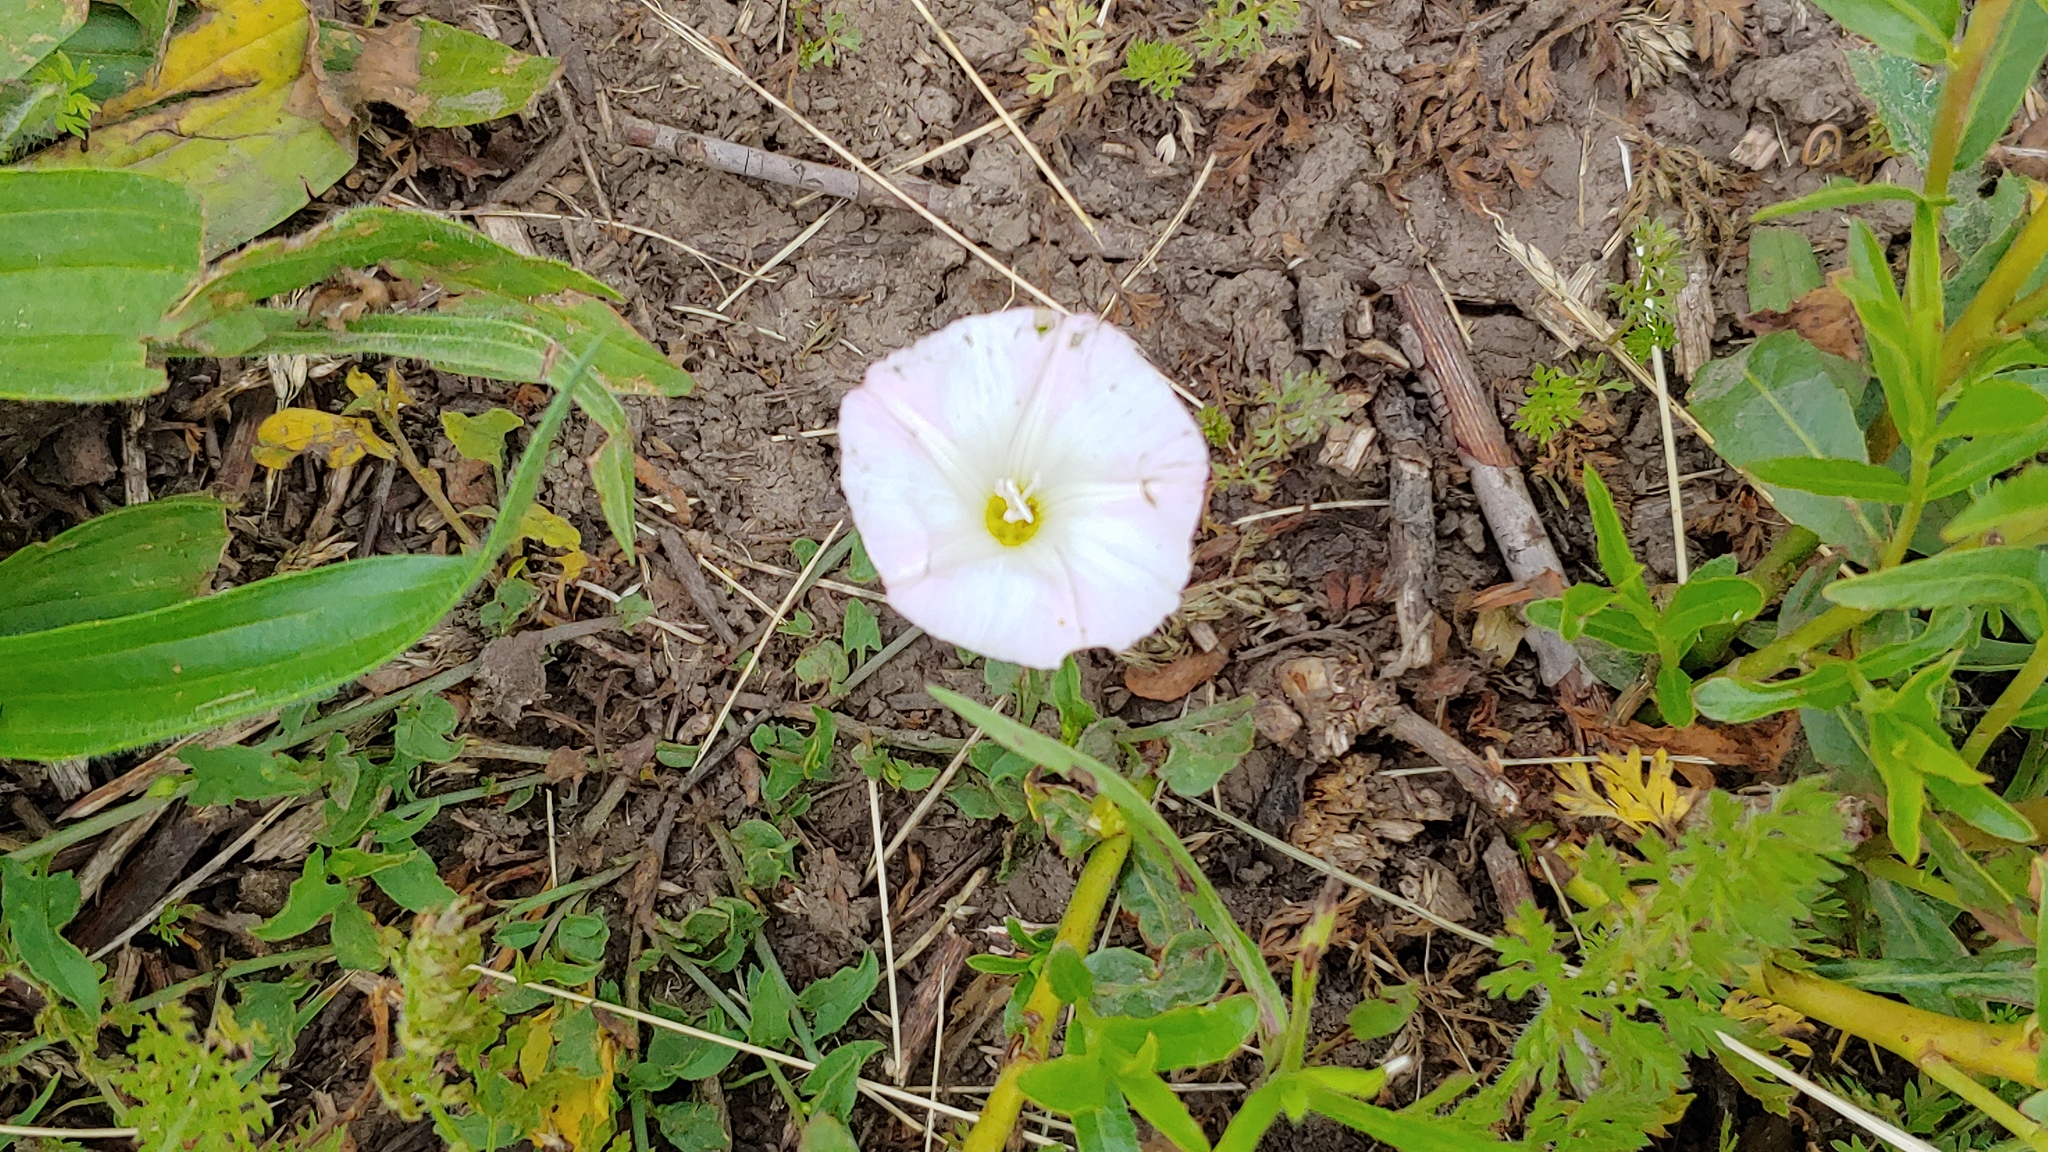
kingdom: Plantae
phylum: Tracheophyta
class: Magnoliopsida
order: Solanales
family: Convolvulaceae
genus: Convolvulus
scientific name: Convolvulus arvensis
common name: Field bindweed
